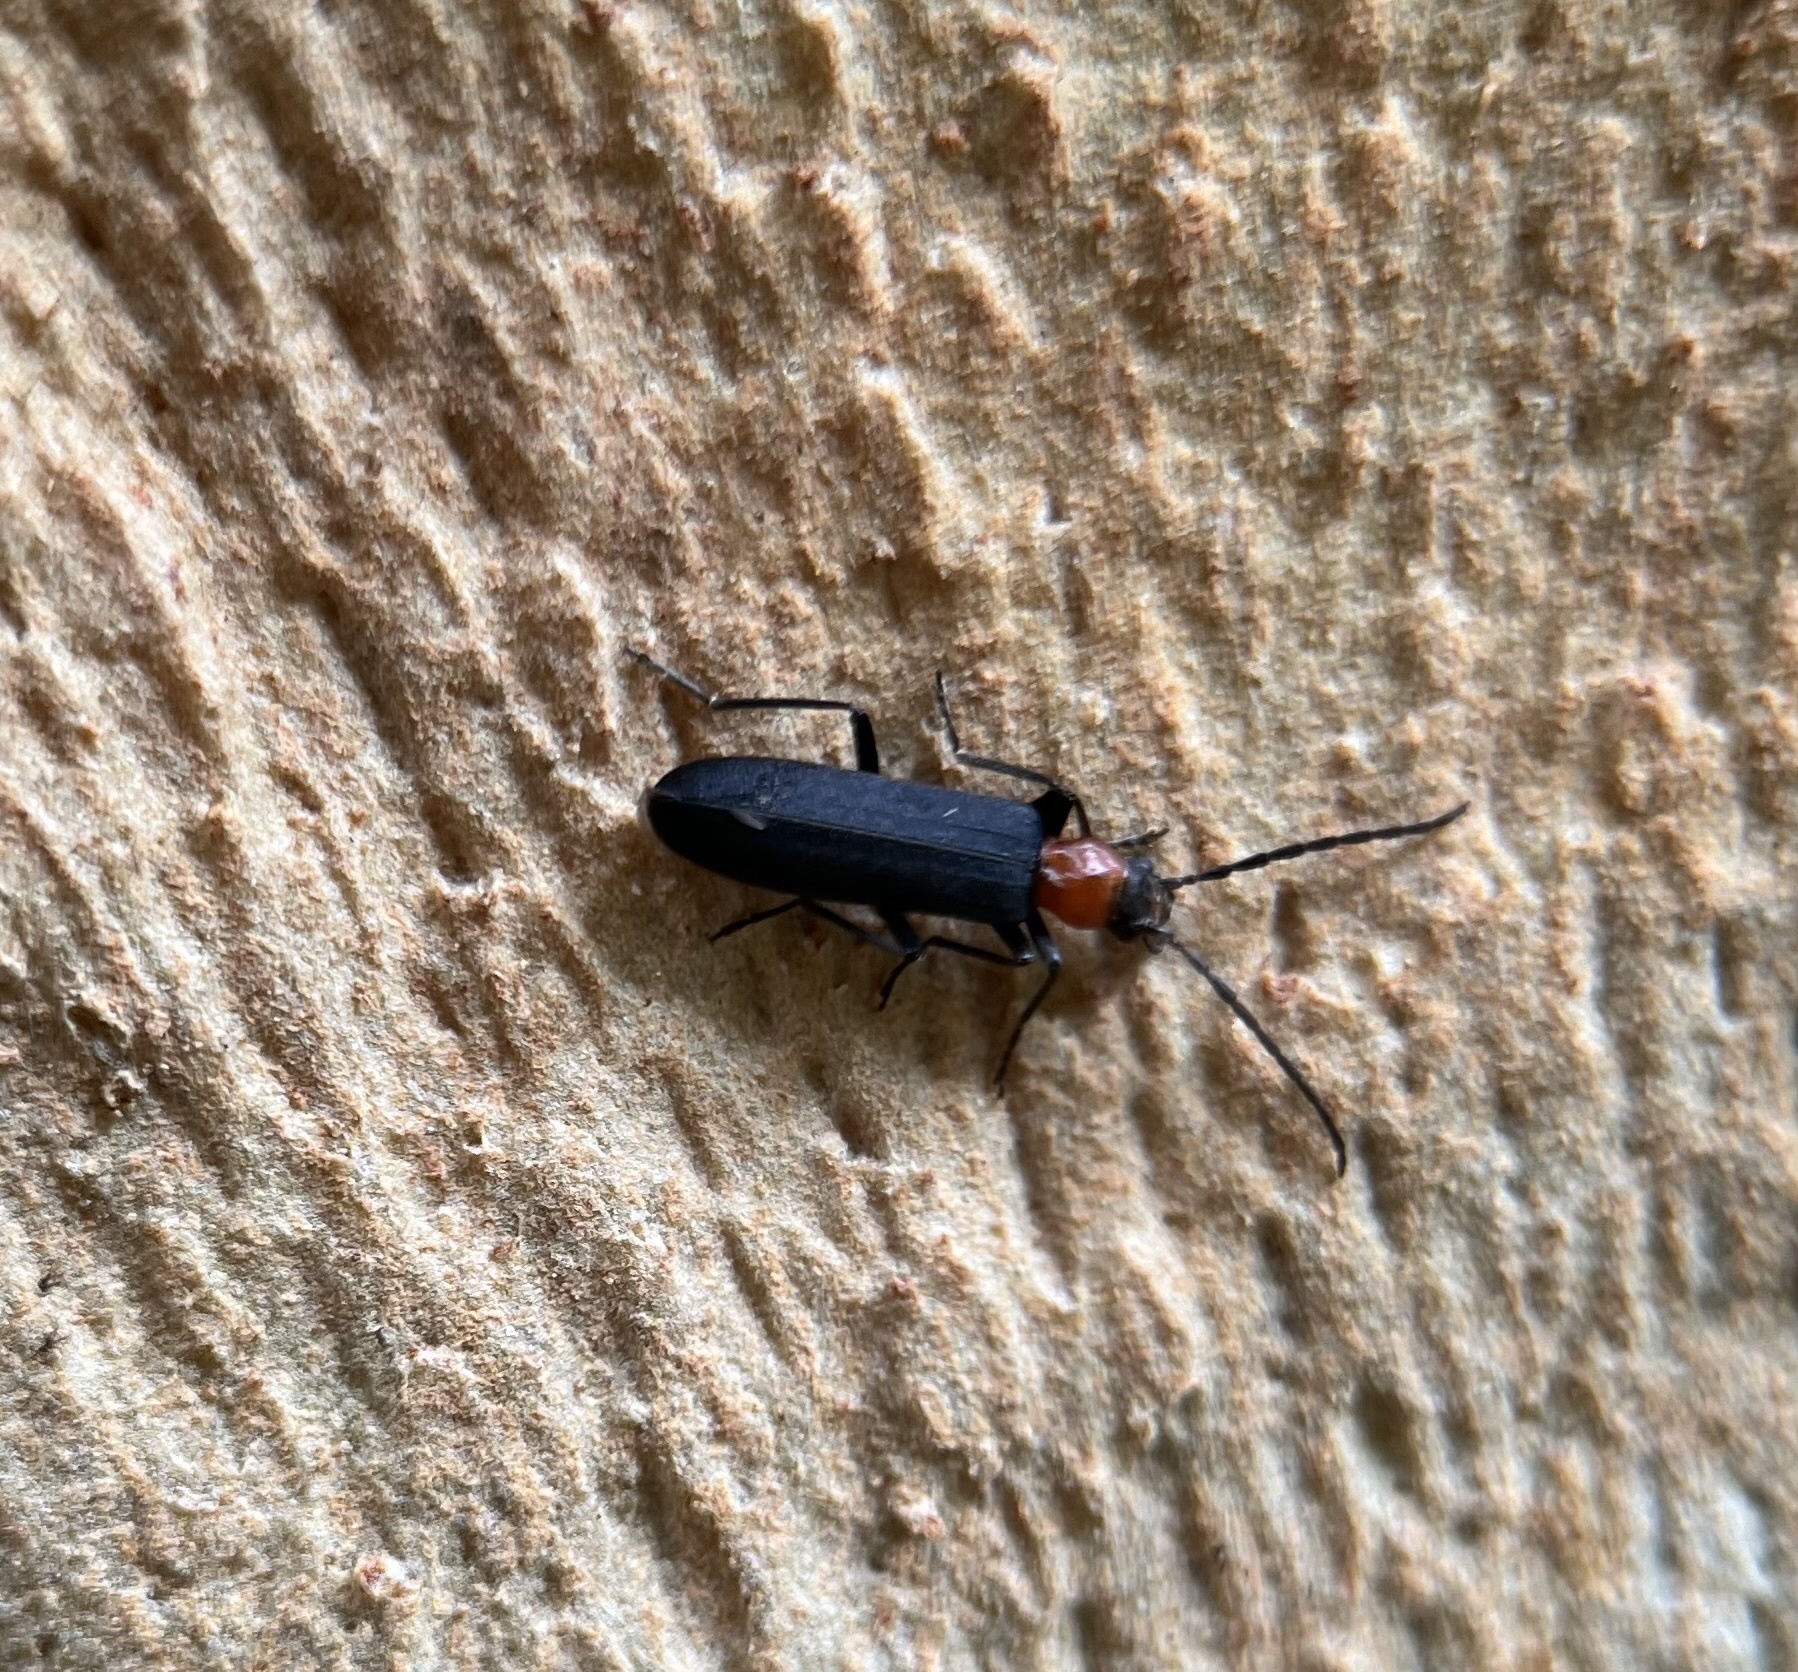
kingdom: Animalia
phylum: Arthropoda
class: Insecta
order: Coleoptera
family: Oedemeridae
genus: Ischnomera
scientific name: Ischnomera
